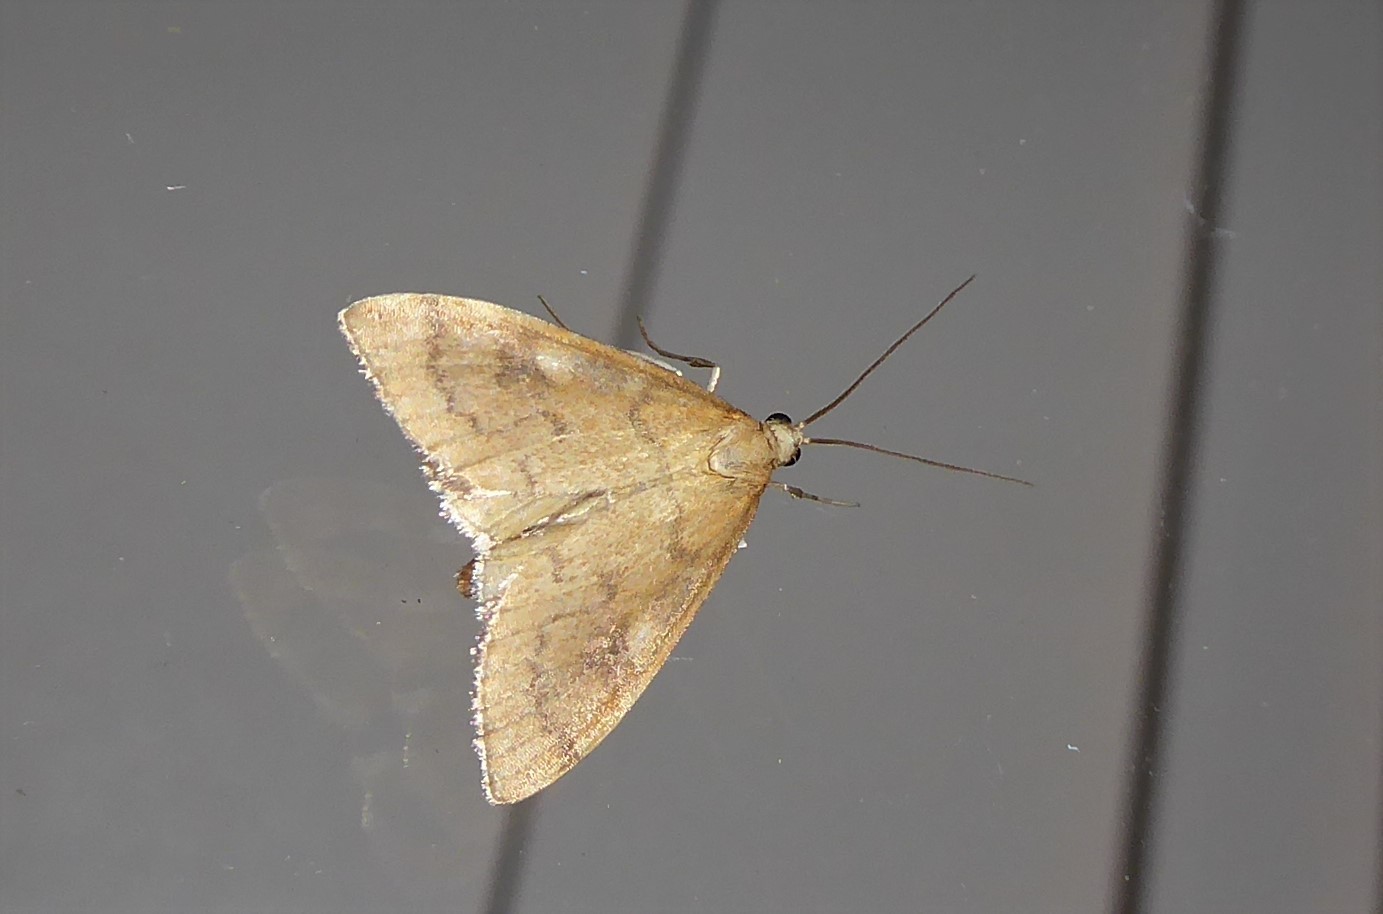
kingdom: Animalia
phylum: Arthropoda
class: Insecta
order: Lepidoptera
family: Crambidae
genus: Udea
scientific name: Udea Mnesictena flavidalis
